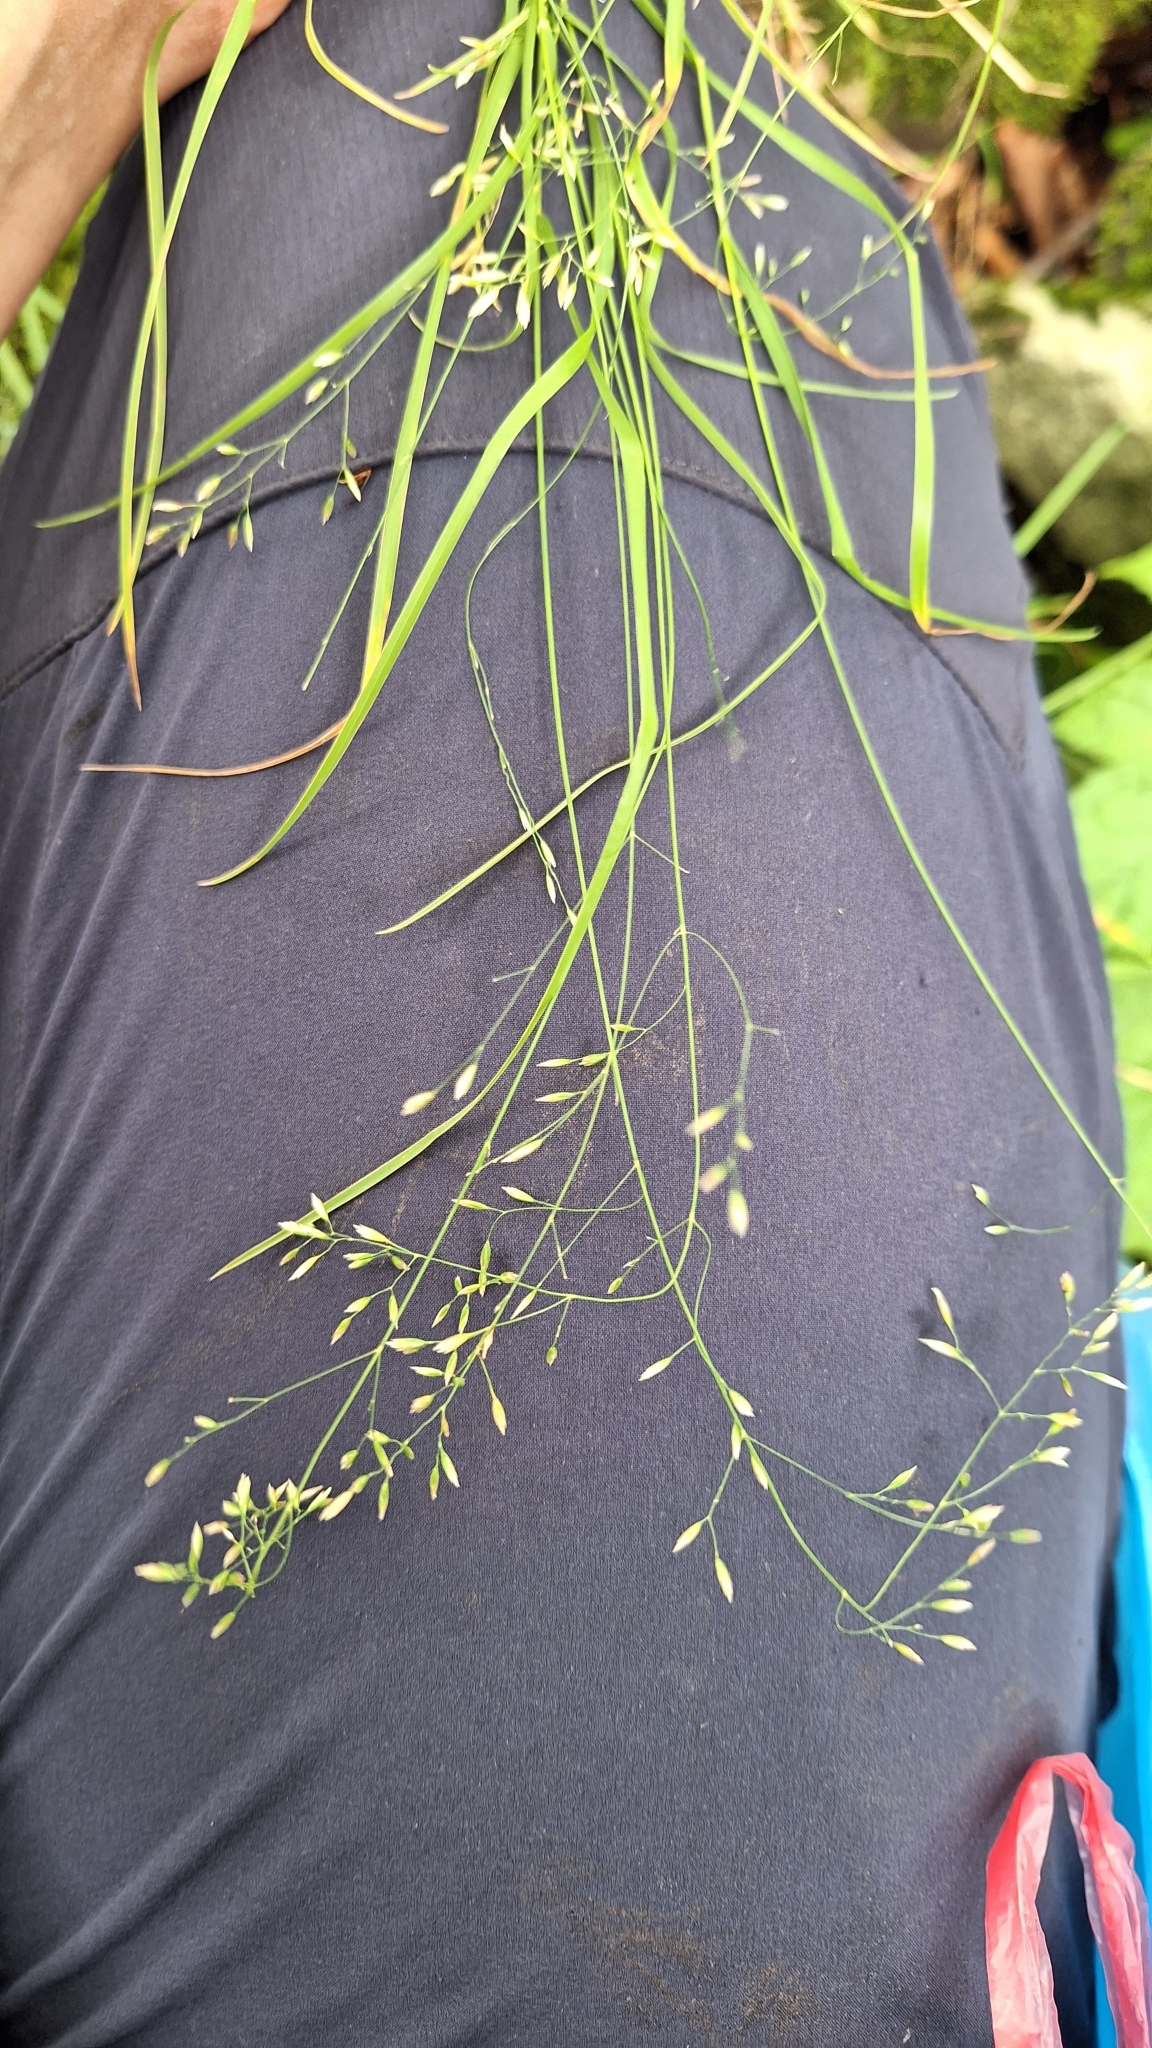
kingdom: Plantae
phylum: Tracheophyta
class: Liliopsida
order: Poales
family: Poaceae
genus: Diarrhena
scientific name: Diarrhena fauriei
